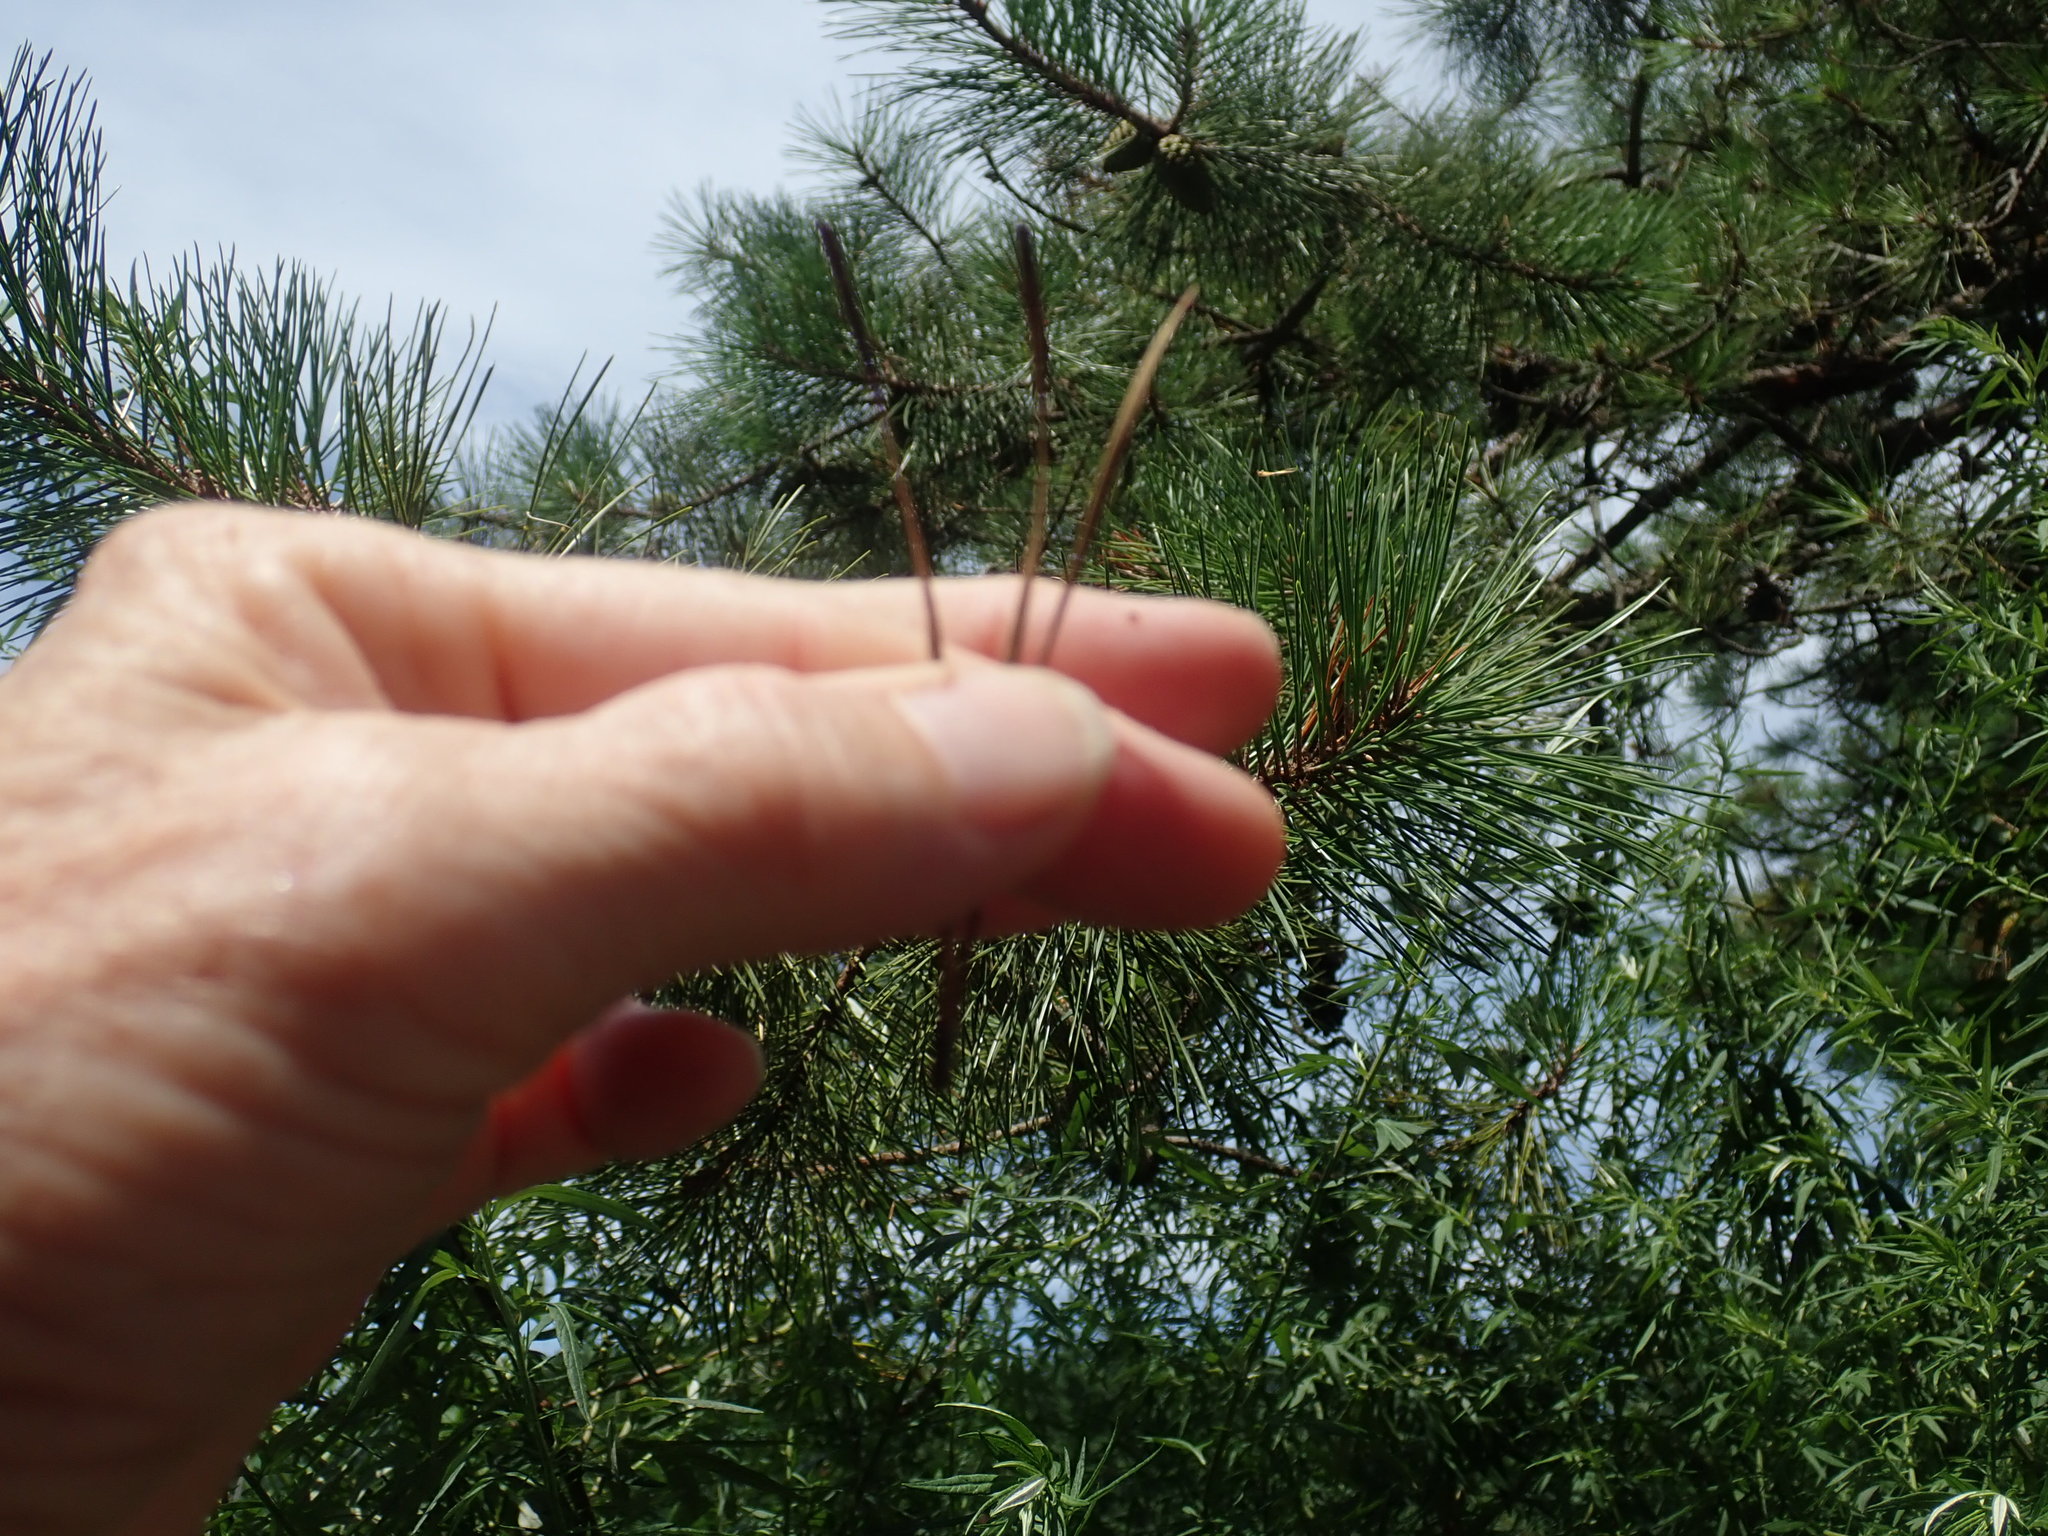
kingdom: Plantae
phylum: Tracheophyta
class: Pinopsida
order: Pinales
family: Pinaceae
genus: Pinus
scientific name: Pinus rigida
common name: Pitch pine
